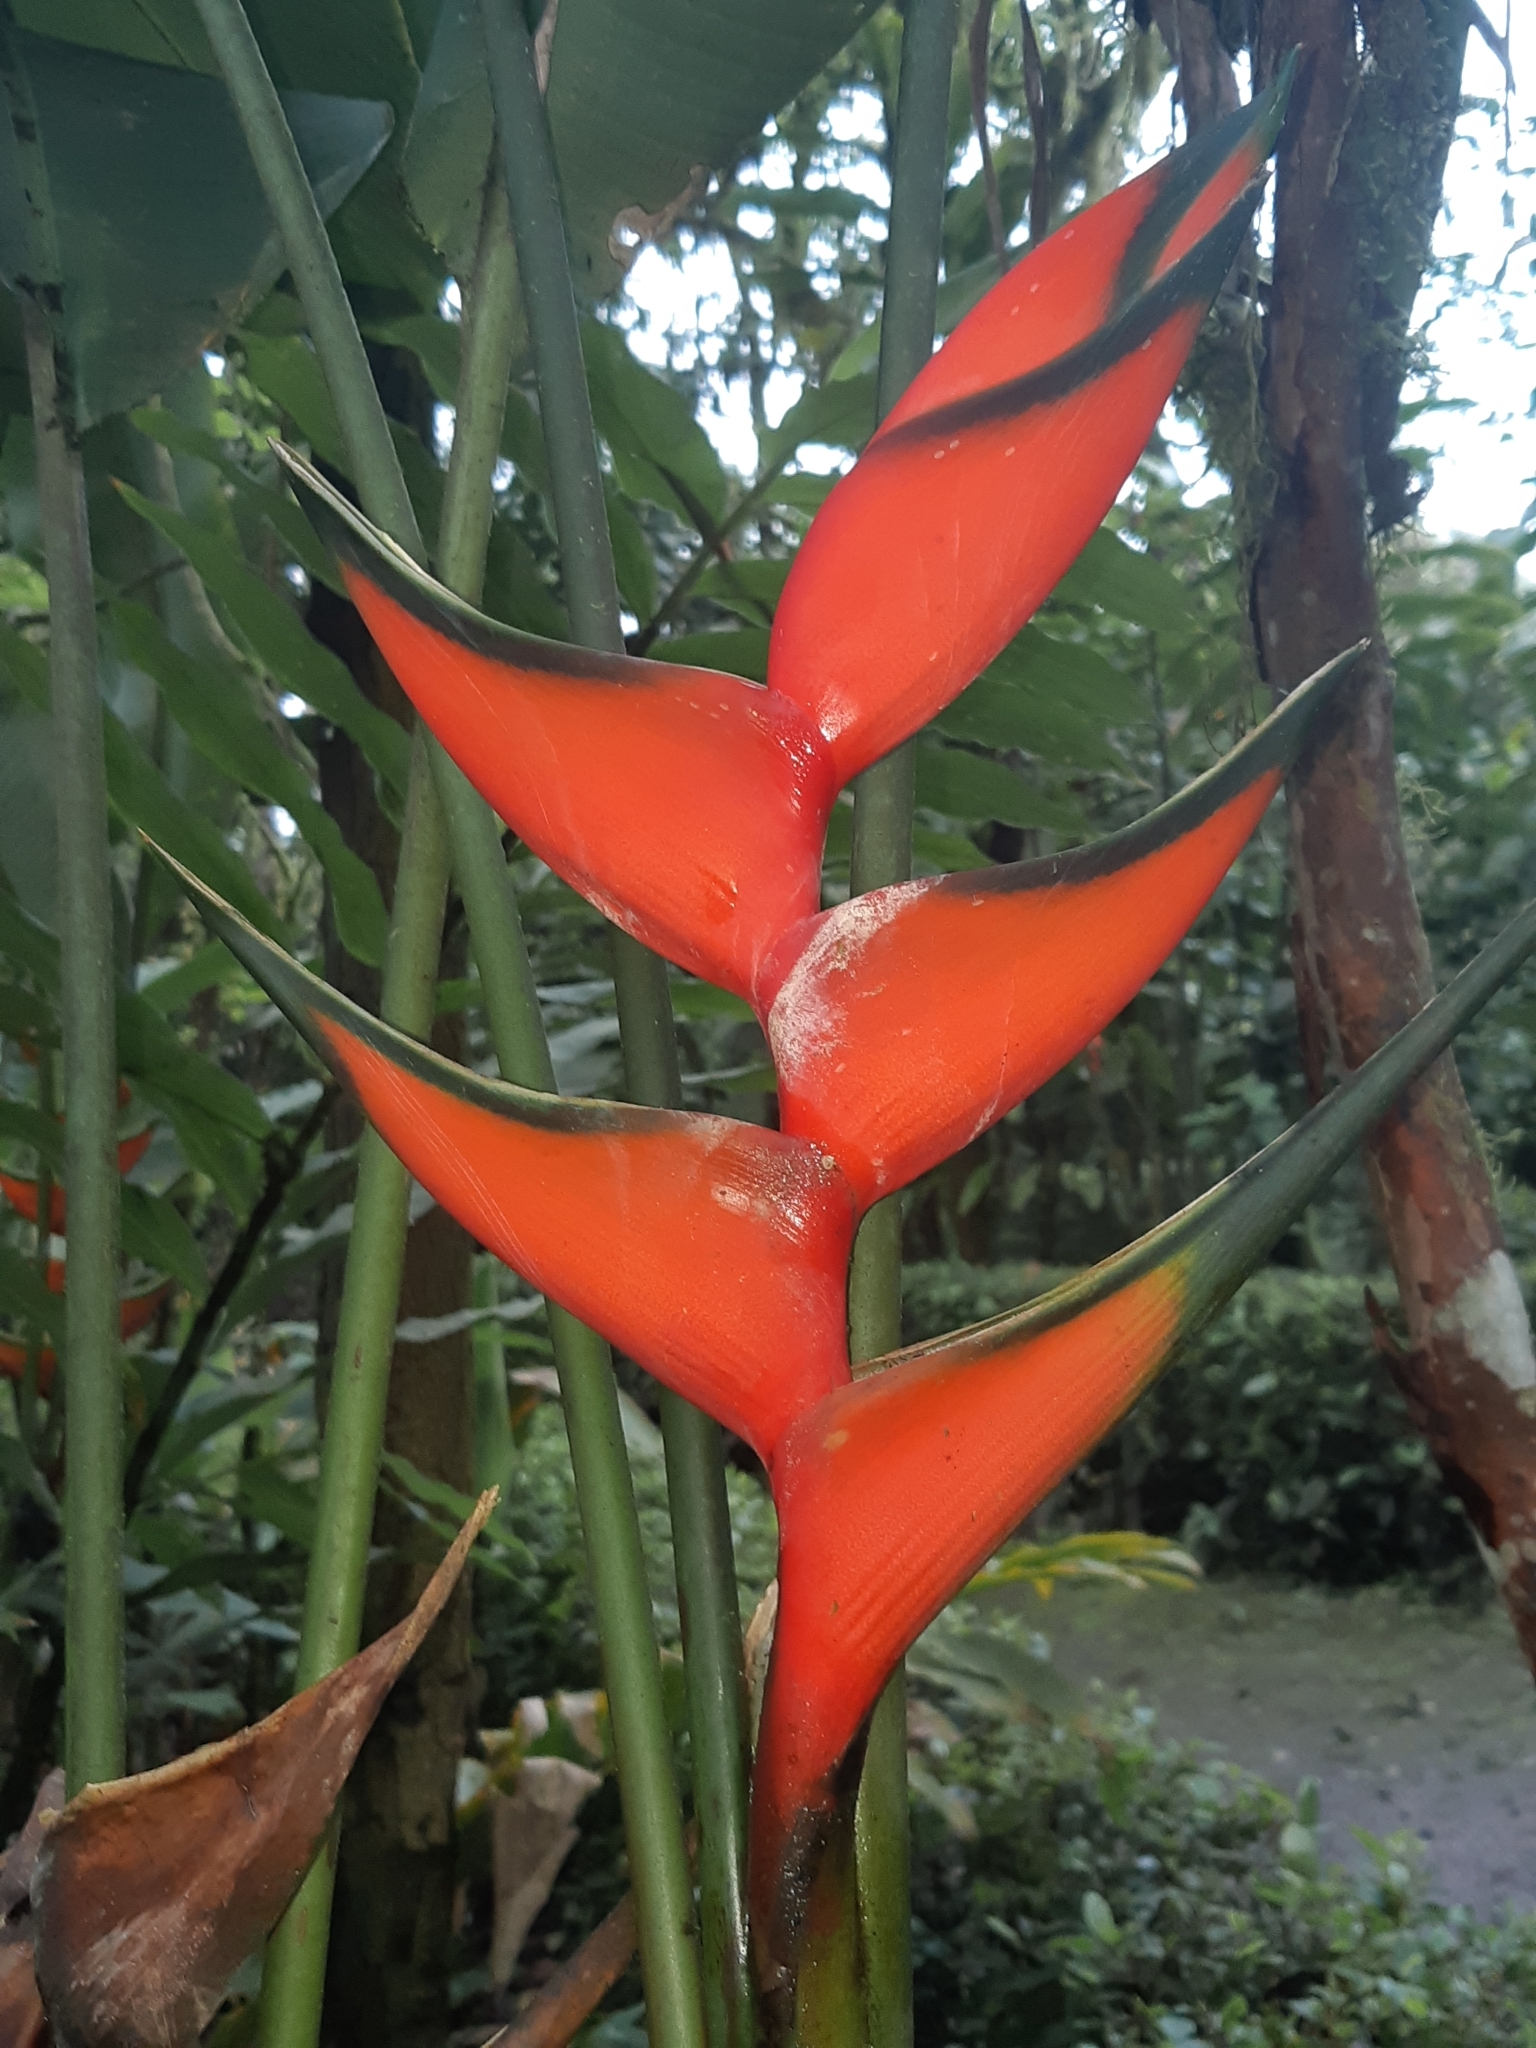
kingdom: Plantae
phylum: Tracheophyta
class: Liliopsida
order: Zingiberales
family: Heliconiaceae
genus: Heliconia
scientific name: Heliconia bihai
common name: Macaw flower
